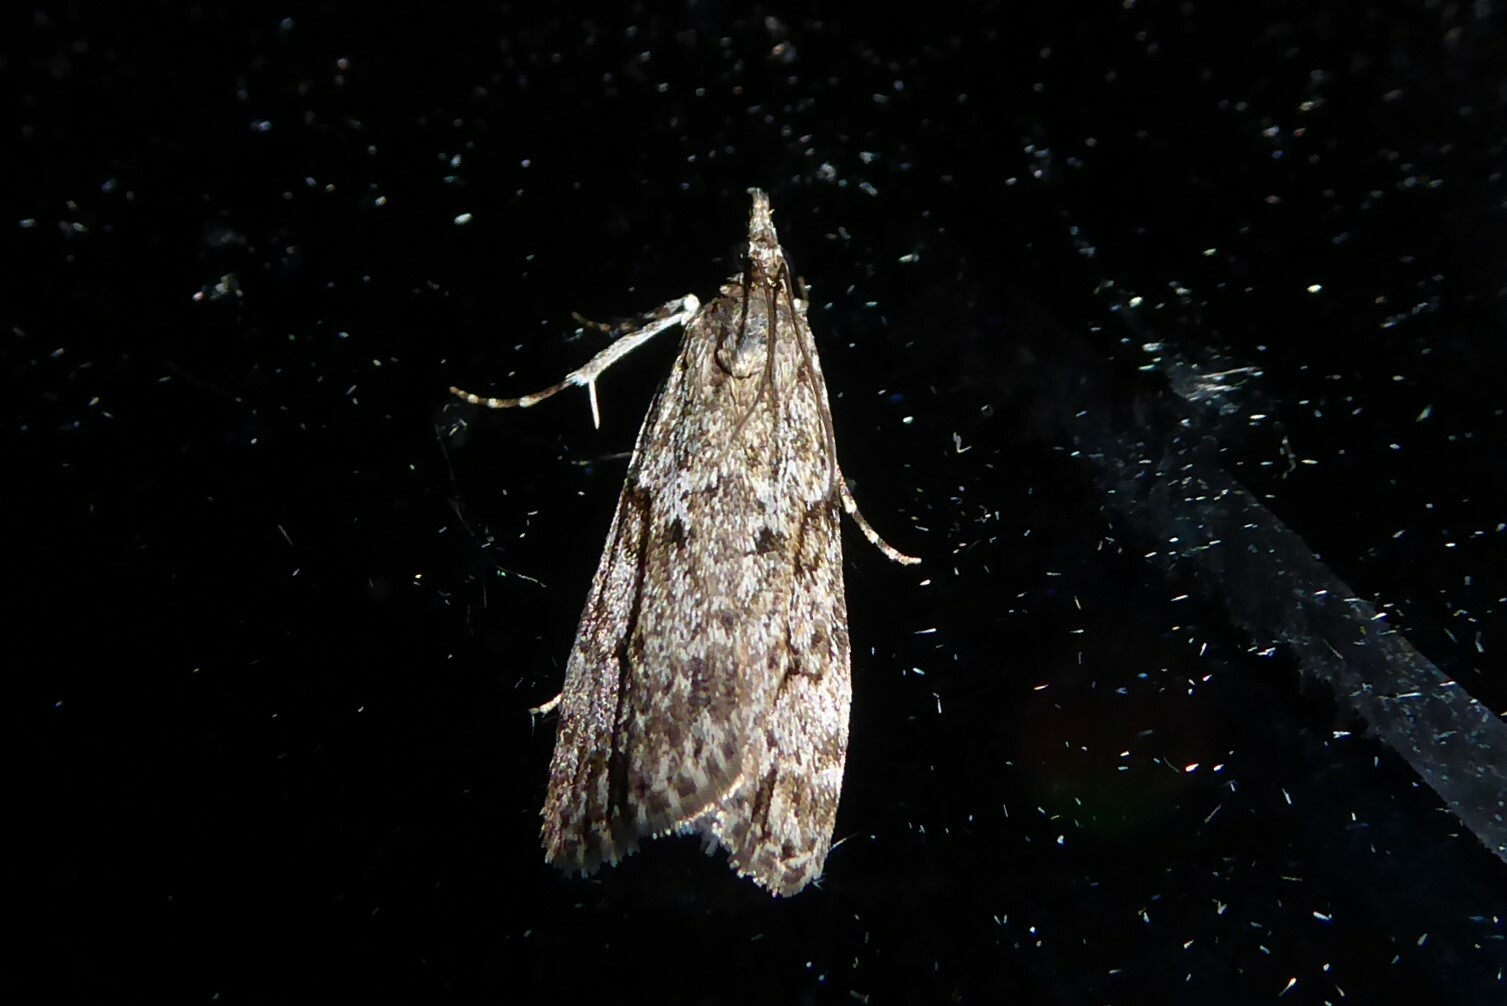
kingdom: Animalia
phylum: Arthropoda
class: Insecta
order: Lepidoptera
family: Crambidae
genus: Eudonia
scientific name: Eudonia cymatias
